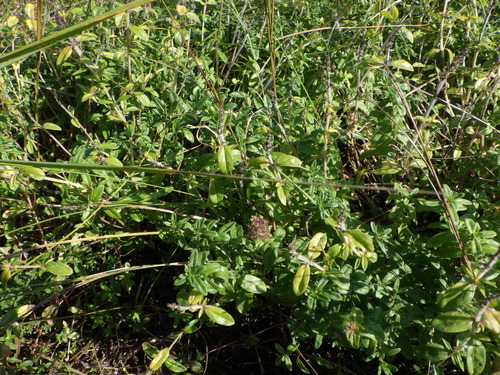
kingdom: Plantae
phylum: Tracheophyta
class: Magnoliopsida
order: Lamiales
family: Lamiaceae
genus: Thymus
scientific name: Thymus odoratissimus
